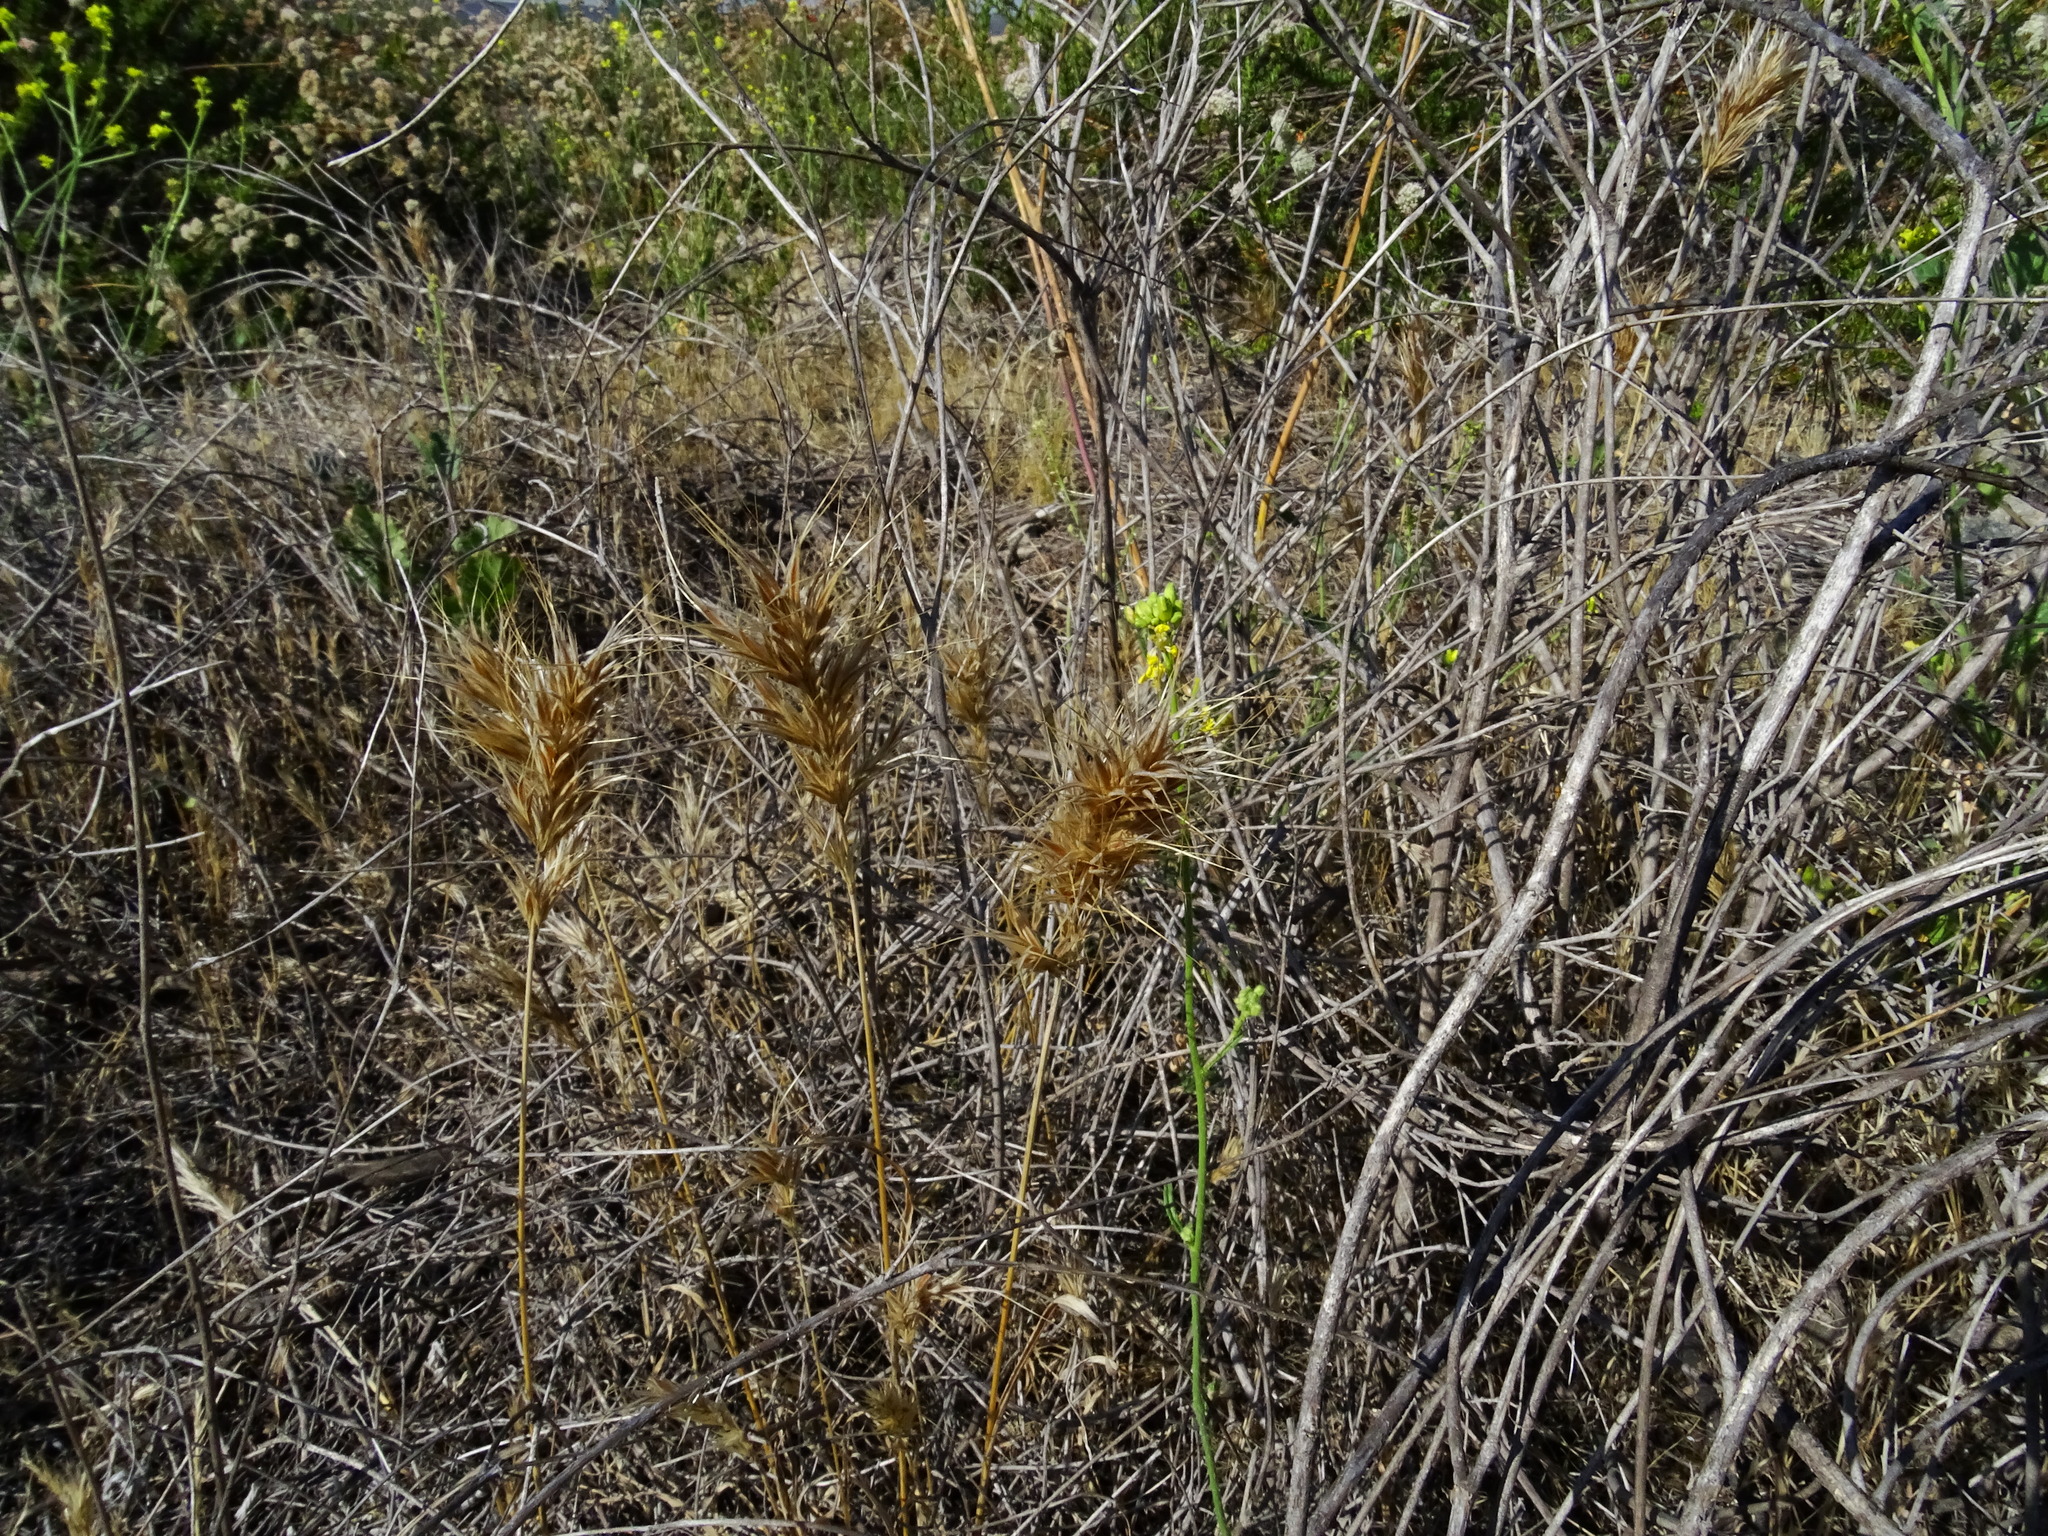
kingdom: Plantae
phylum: Tracheophyta
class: Liliopsida
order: Poales
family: Poaceae
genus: Bromus
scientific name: Bromus madritensis
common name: Compact brome
